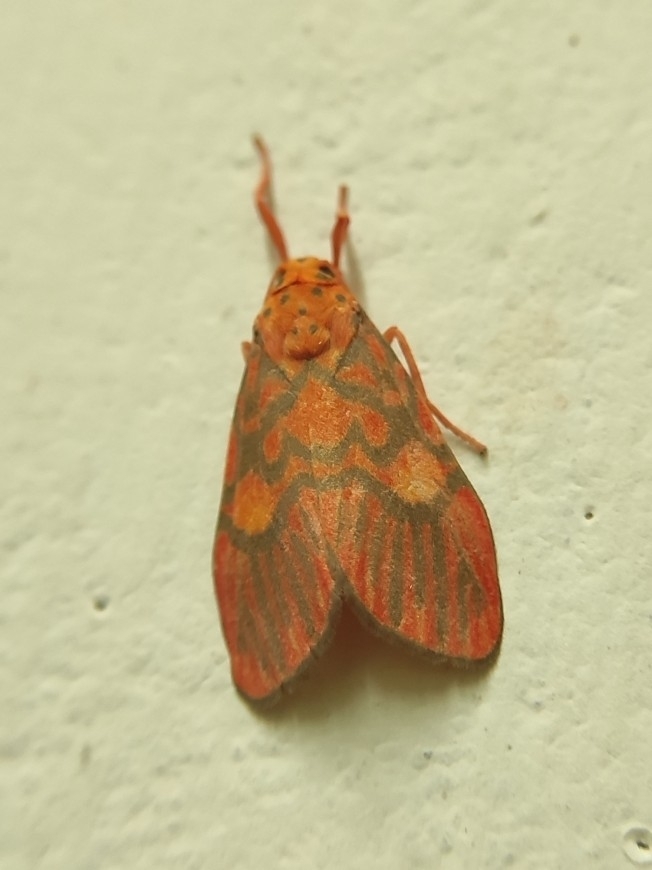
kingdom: Animalia
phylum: Arthropoda
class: Insecta
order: Lepidoptera
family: Erebidae
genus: Ammatho
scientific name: Ammatho cuneonotatus
